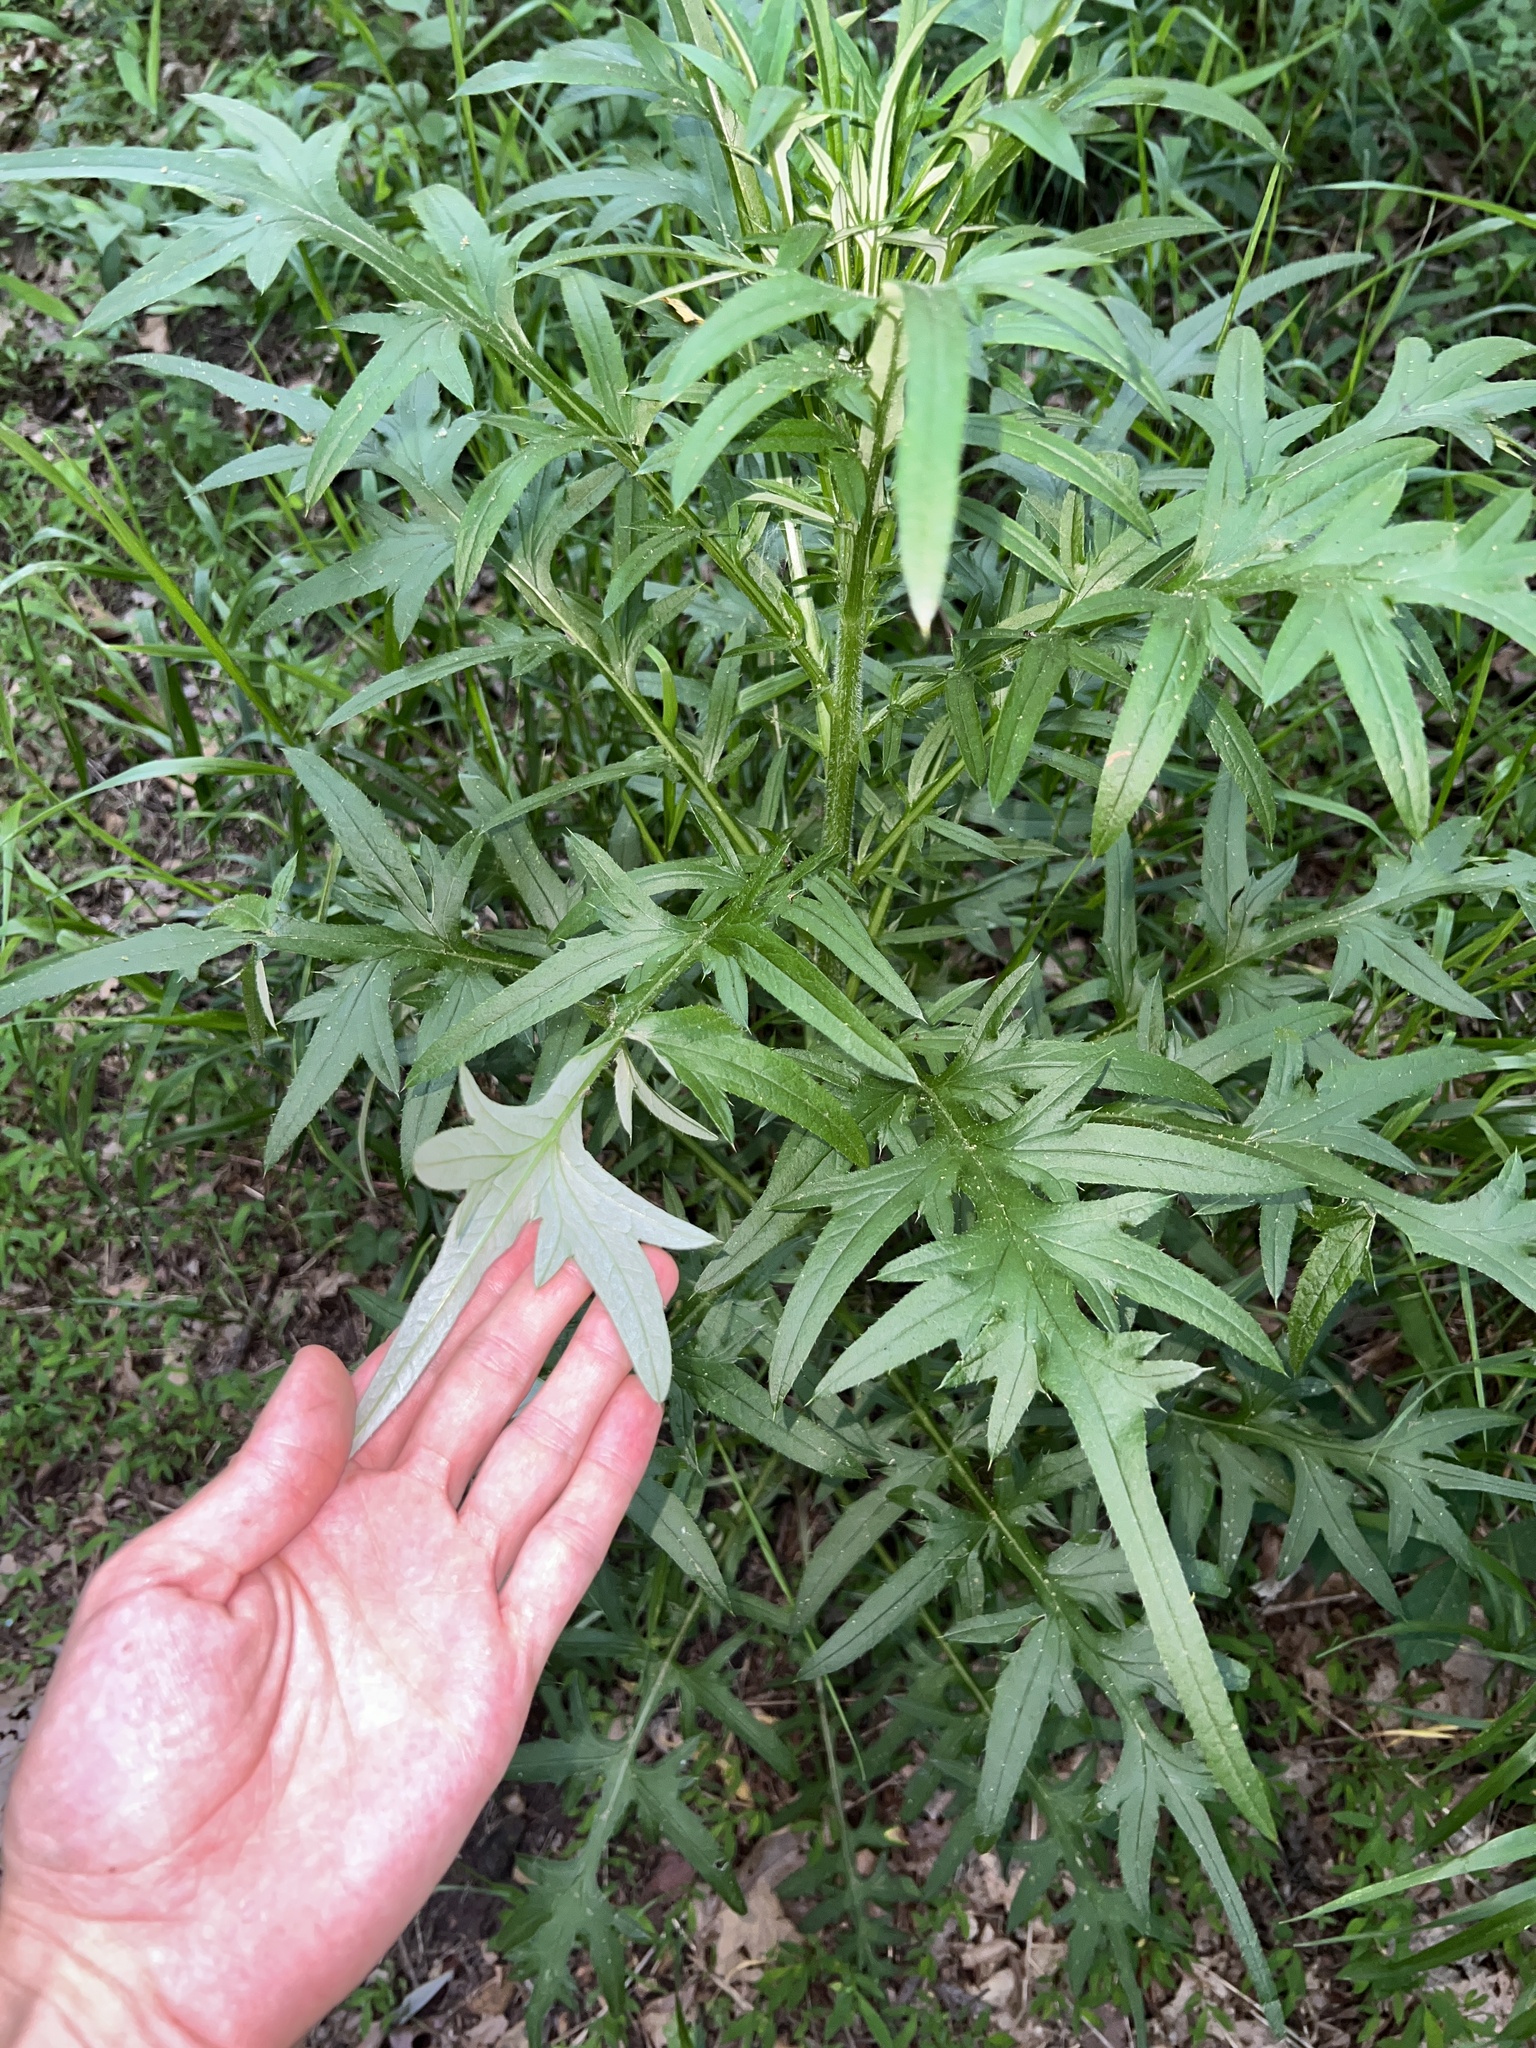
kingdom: Plantae
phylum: Tracheophyta
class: Magnoliopsida
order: Asterales
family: Asteraceae
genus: Cirsium
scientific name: Cirsium discolor
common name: Field thistle
